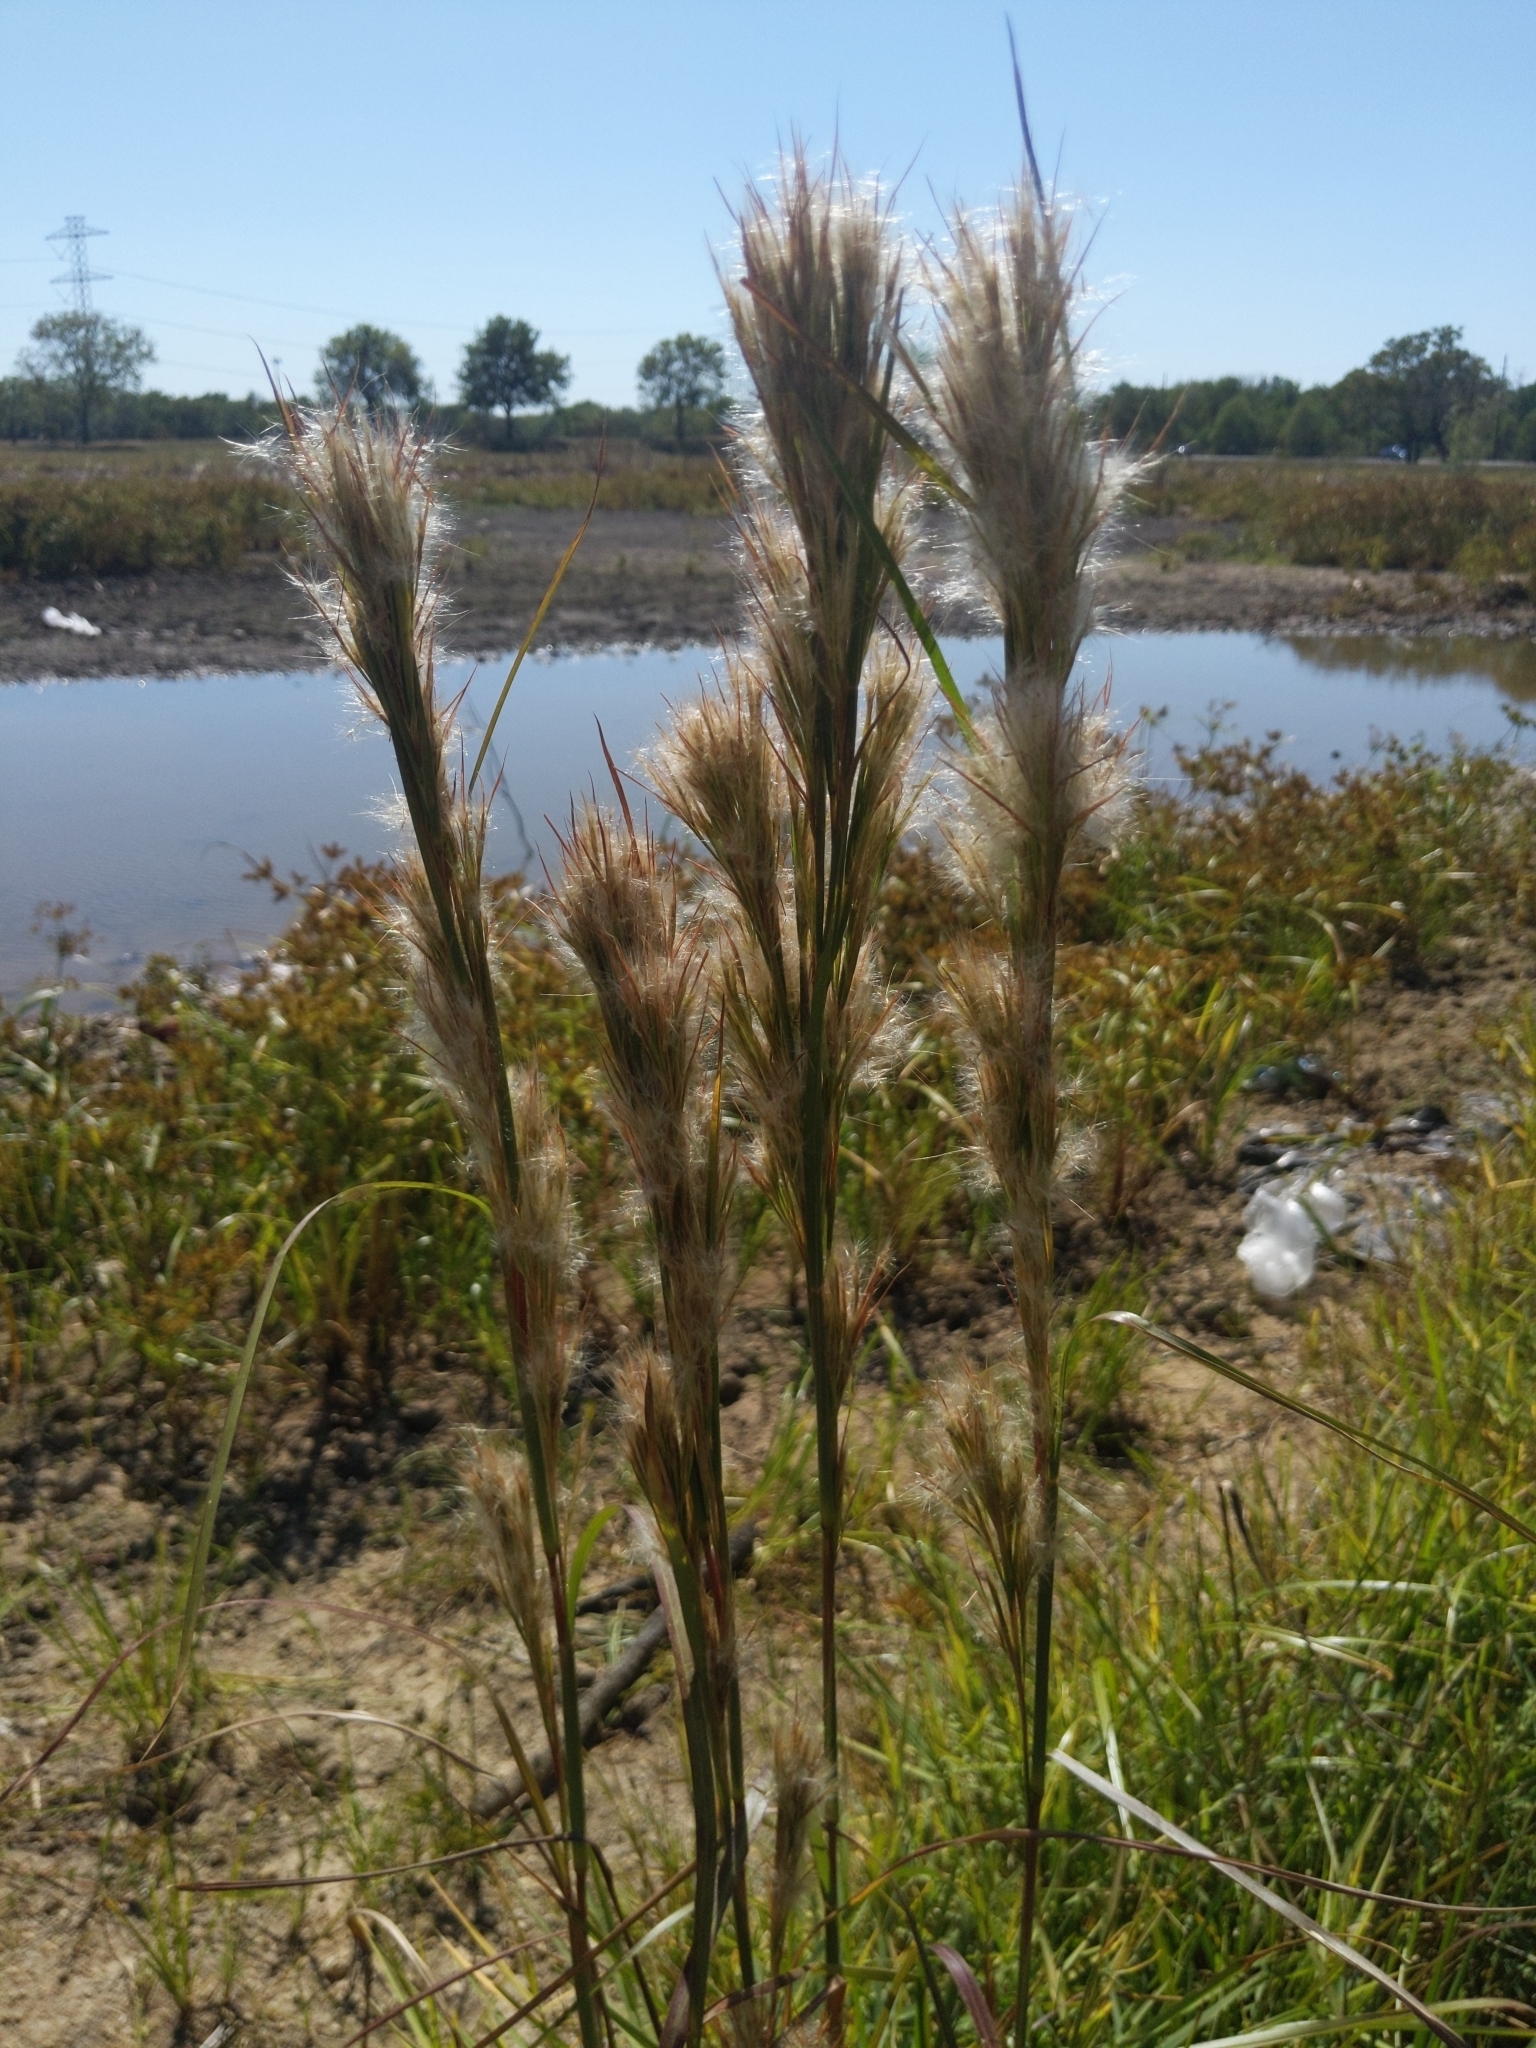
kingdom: Plantae
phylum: Tracheophyta
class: Liliopsida
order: Poales
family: Poaceae
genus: Andropogon
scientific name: Andropogon tenuispatheus
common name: Bushy bluestem
